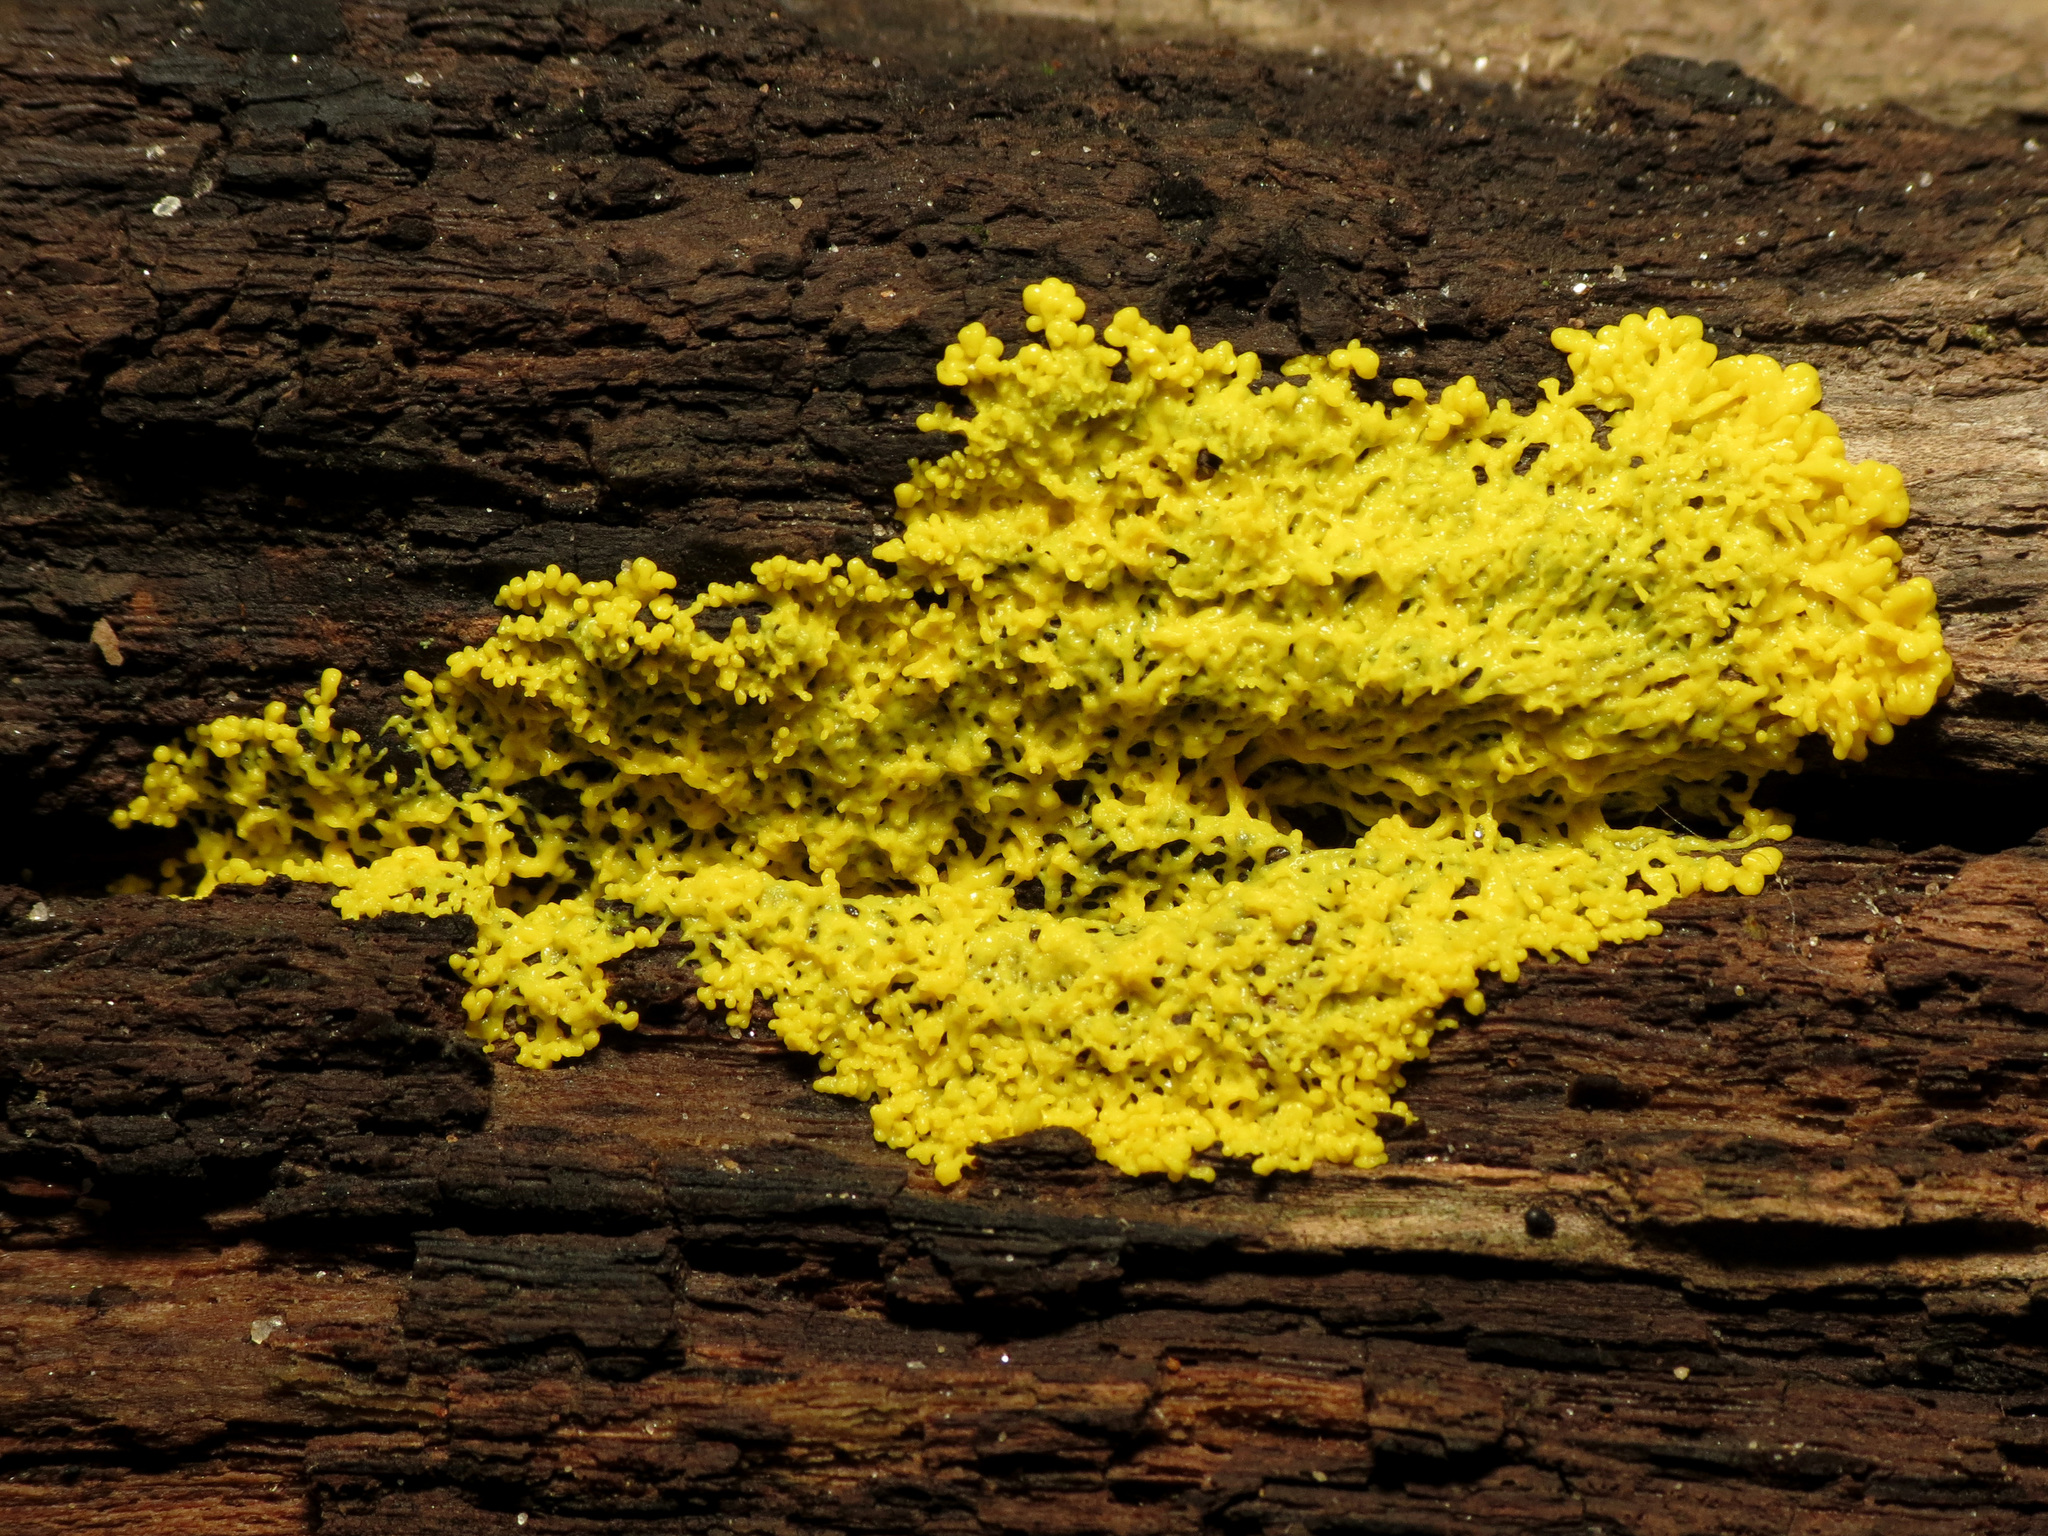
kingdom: Protozoa
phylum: Mycetozoa
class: Myxomycetes
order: Physarales
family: Physaraceae
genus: Fuligo
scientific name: Fuligo septica
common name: Dog vomit slime mold
